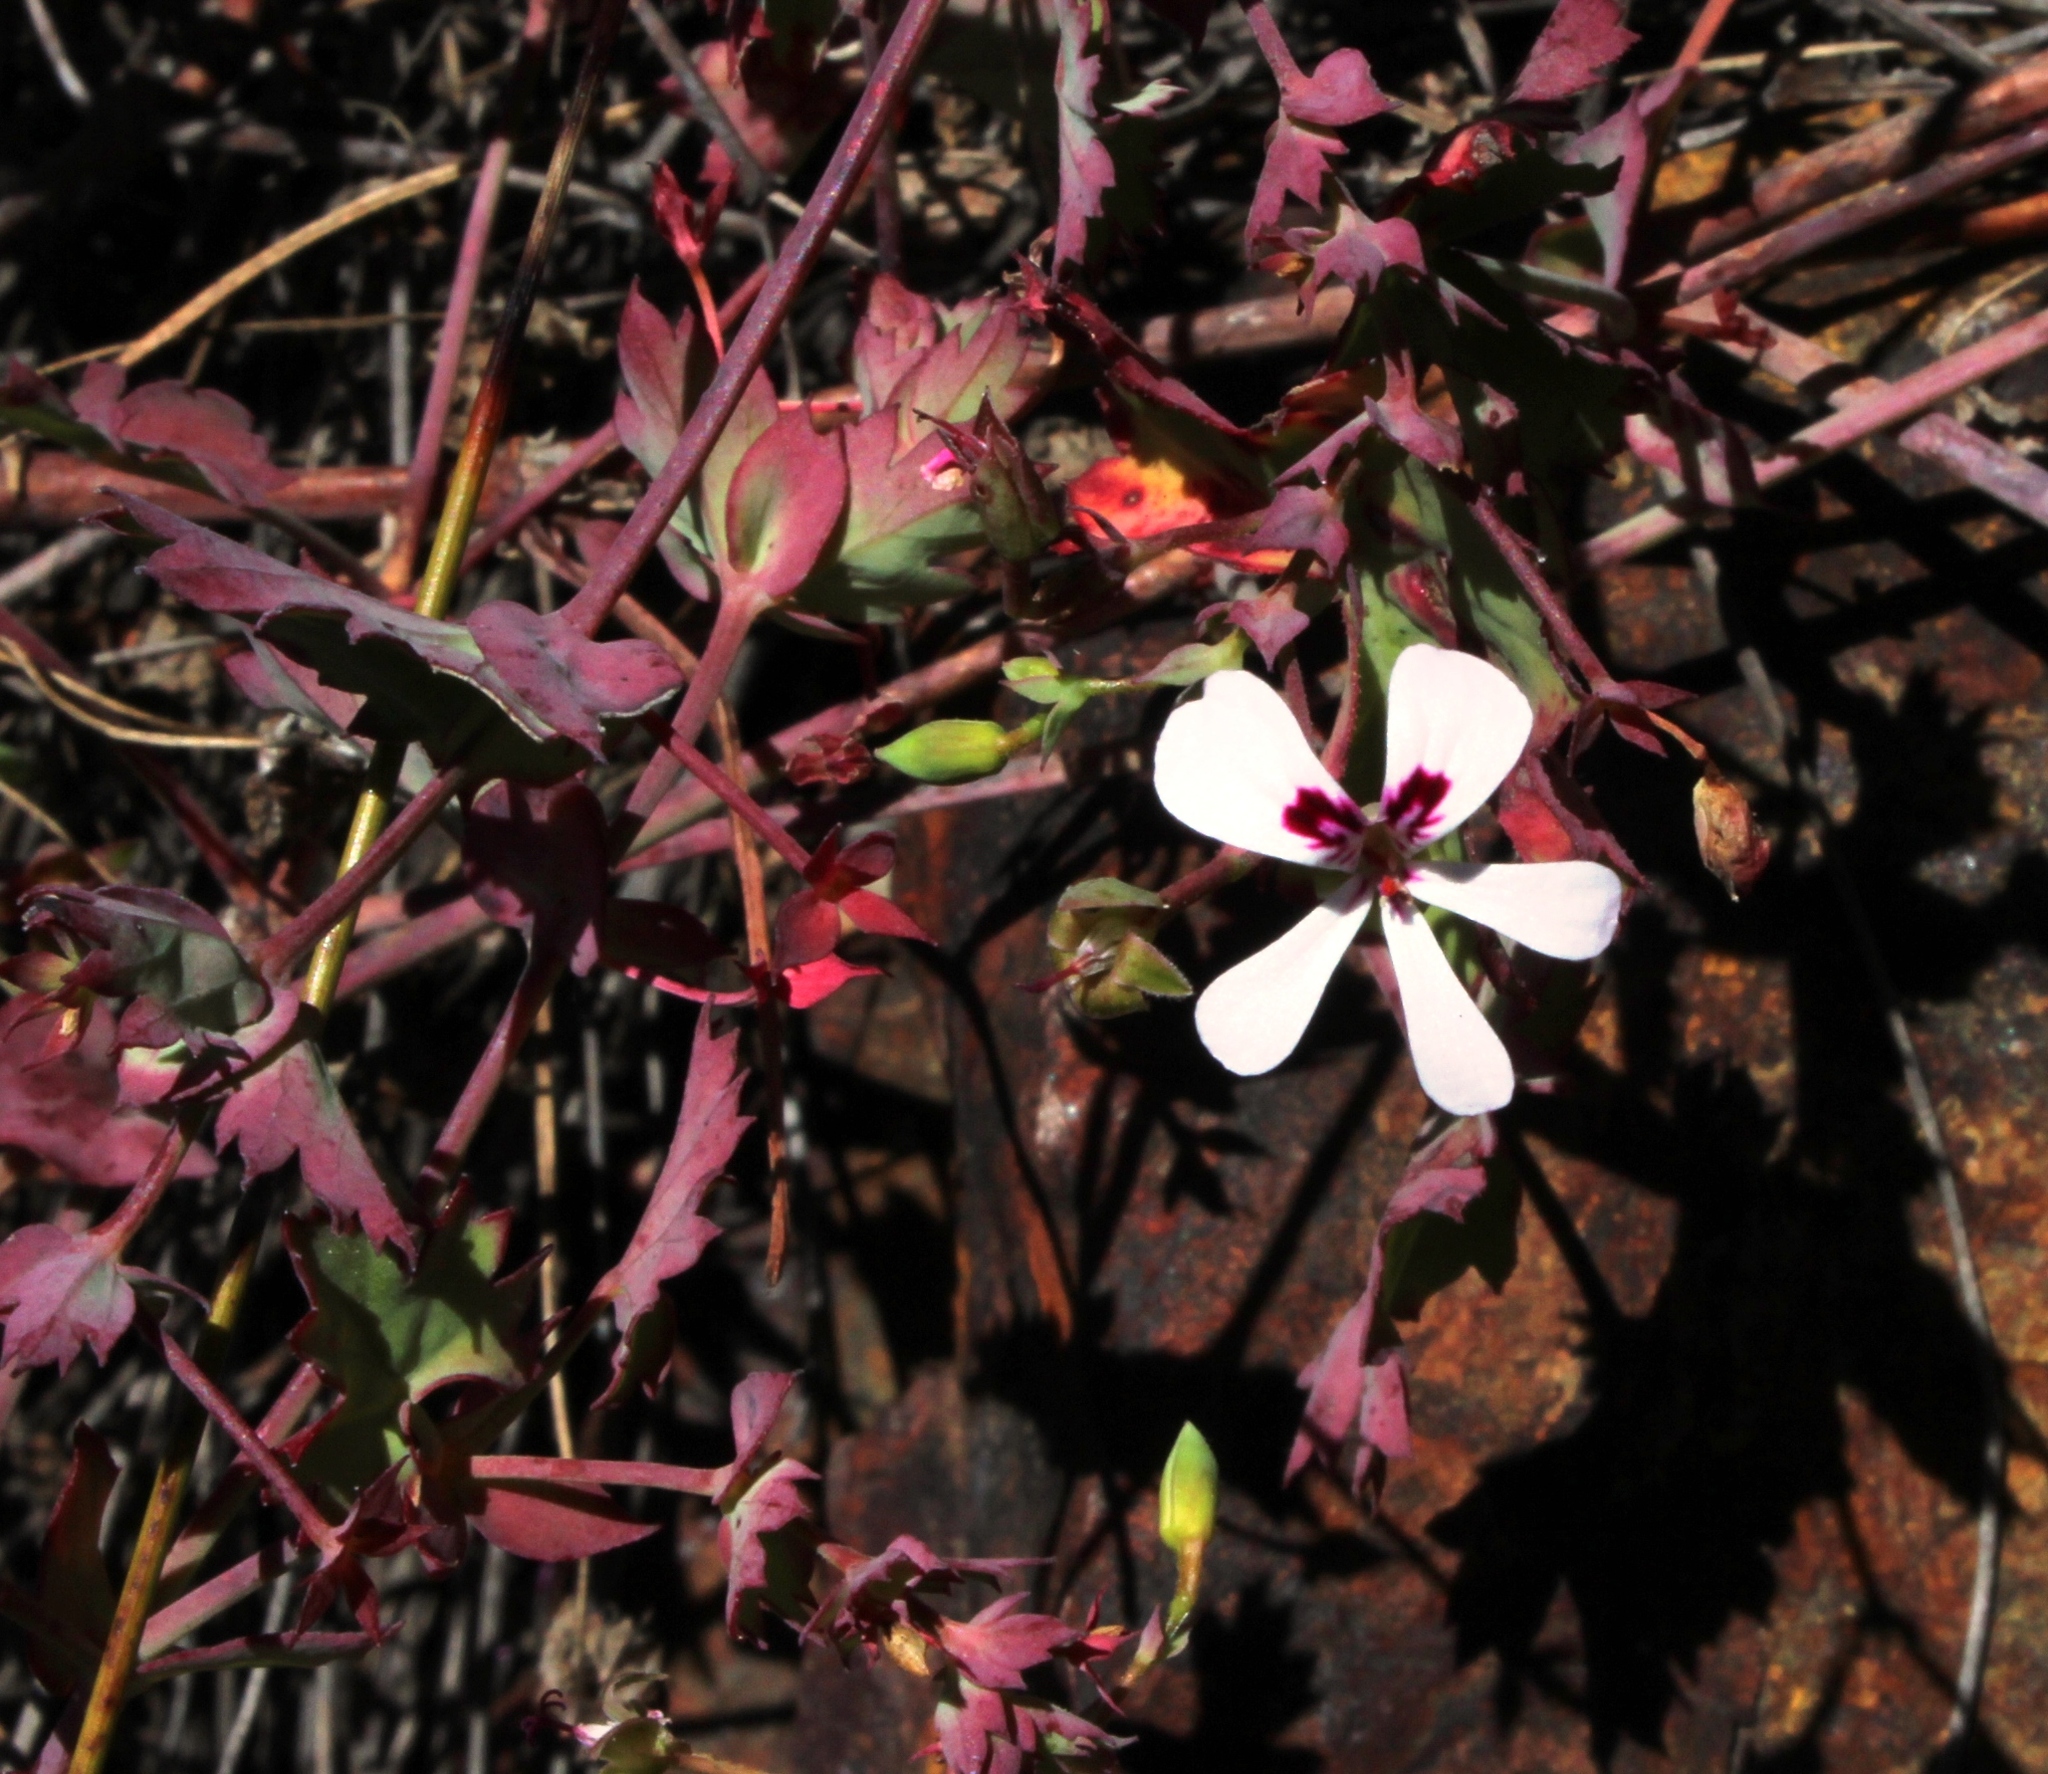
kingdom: Plantae
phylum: Tracheophyta
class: Magnoliopsida
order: Geraniales
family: Geraniaceae
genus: Pelargonium
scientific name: Pelargonium patulum
